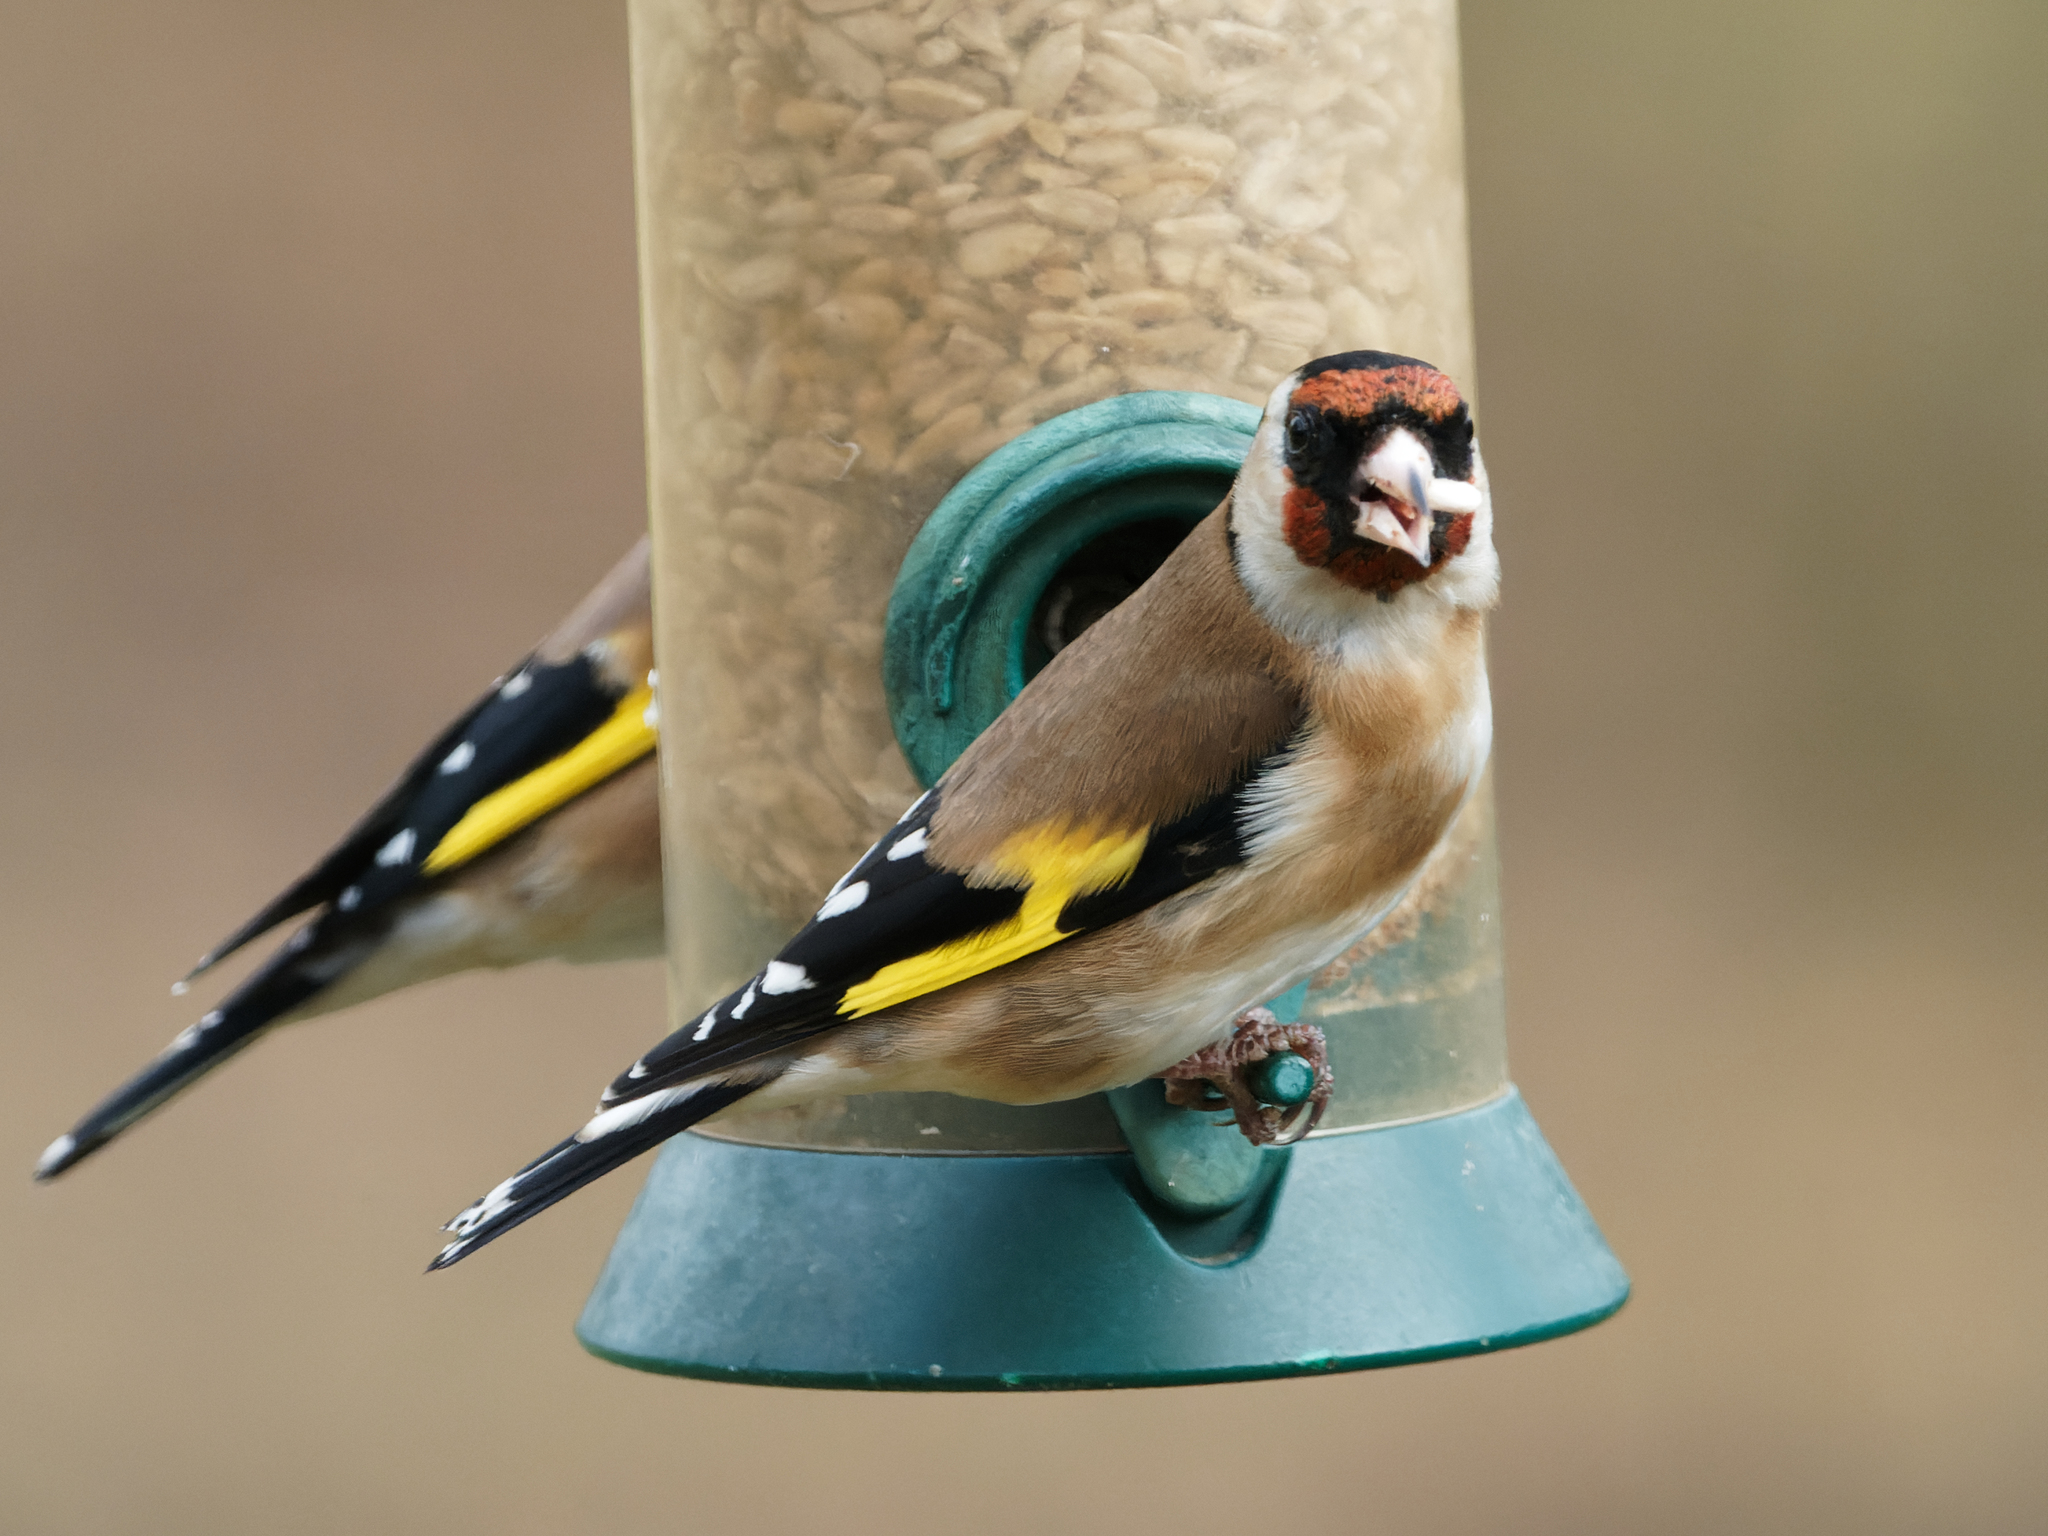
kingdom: Animalia
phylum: Chordata
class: Aves
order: Passeriformes
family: Fringillidae
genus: Carduelis
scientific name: Carduelis carduelis
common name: European goldfinch
